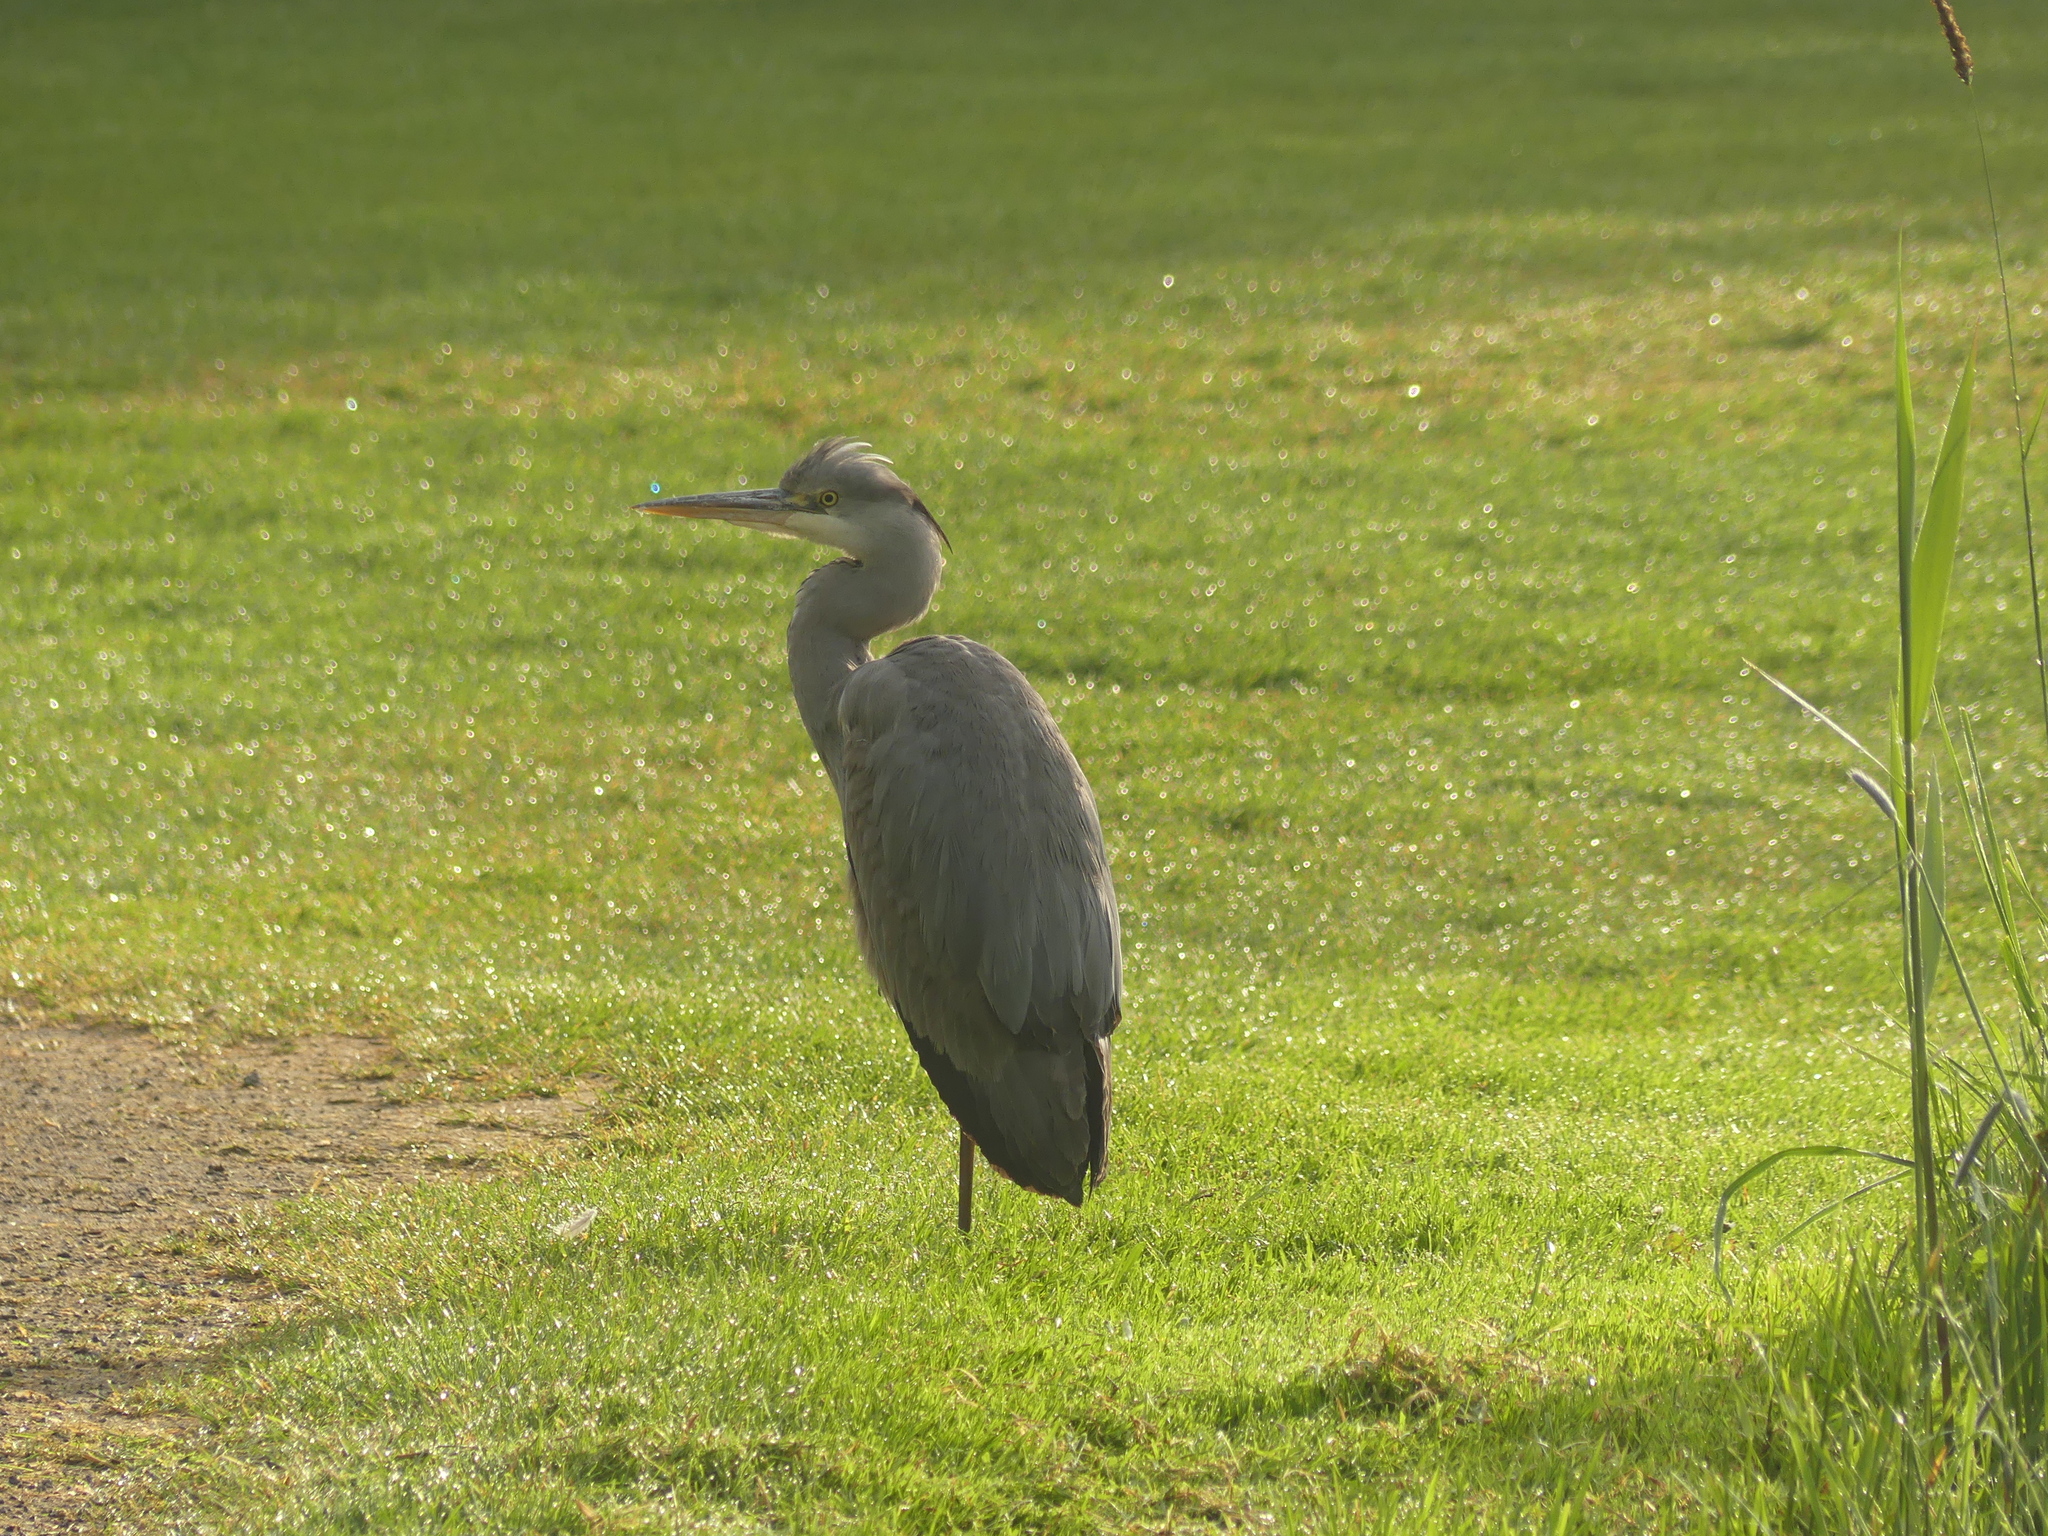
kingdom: Animalia
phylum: Chordata
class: Aves
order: Pelecaniformes
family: Ardeidae
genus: Ardea
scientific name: Ardea cinerea
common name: Grey heron
